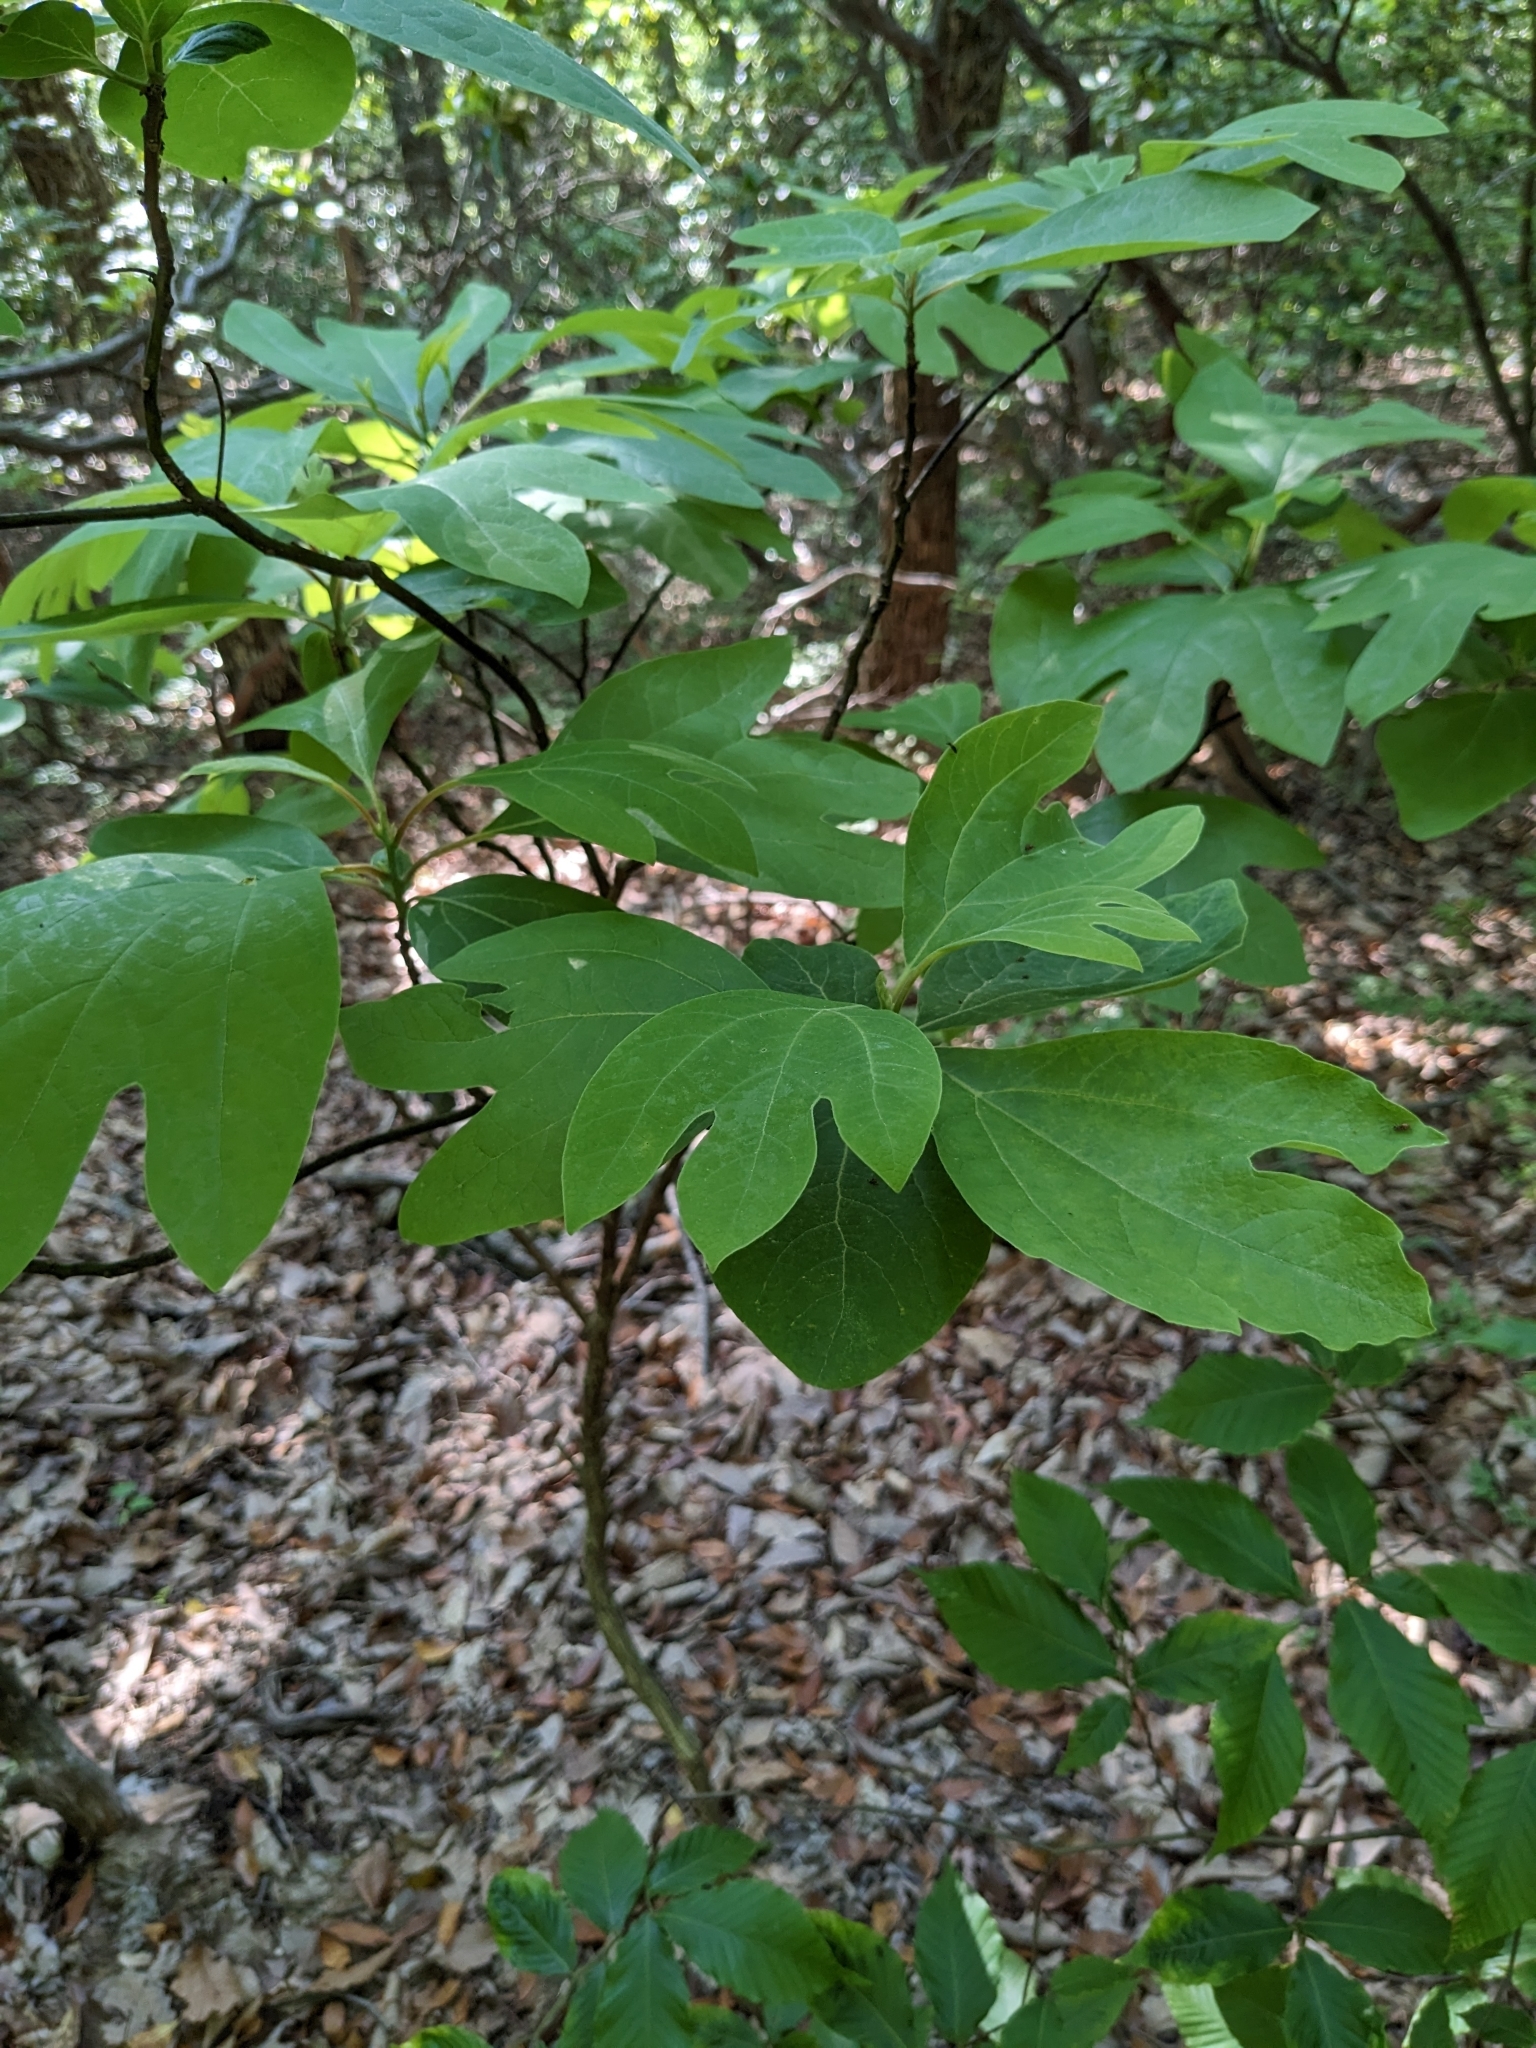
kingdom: Plantae
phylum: Tracheophyta
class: Magnoliopsida
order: Laurales
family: Lauraceae
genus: Sassafras
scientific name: Sassafras albidum
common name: Sassafras
